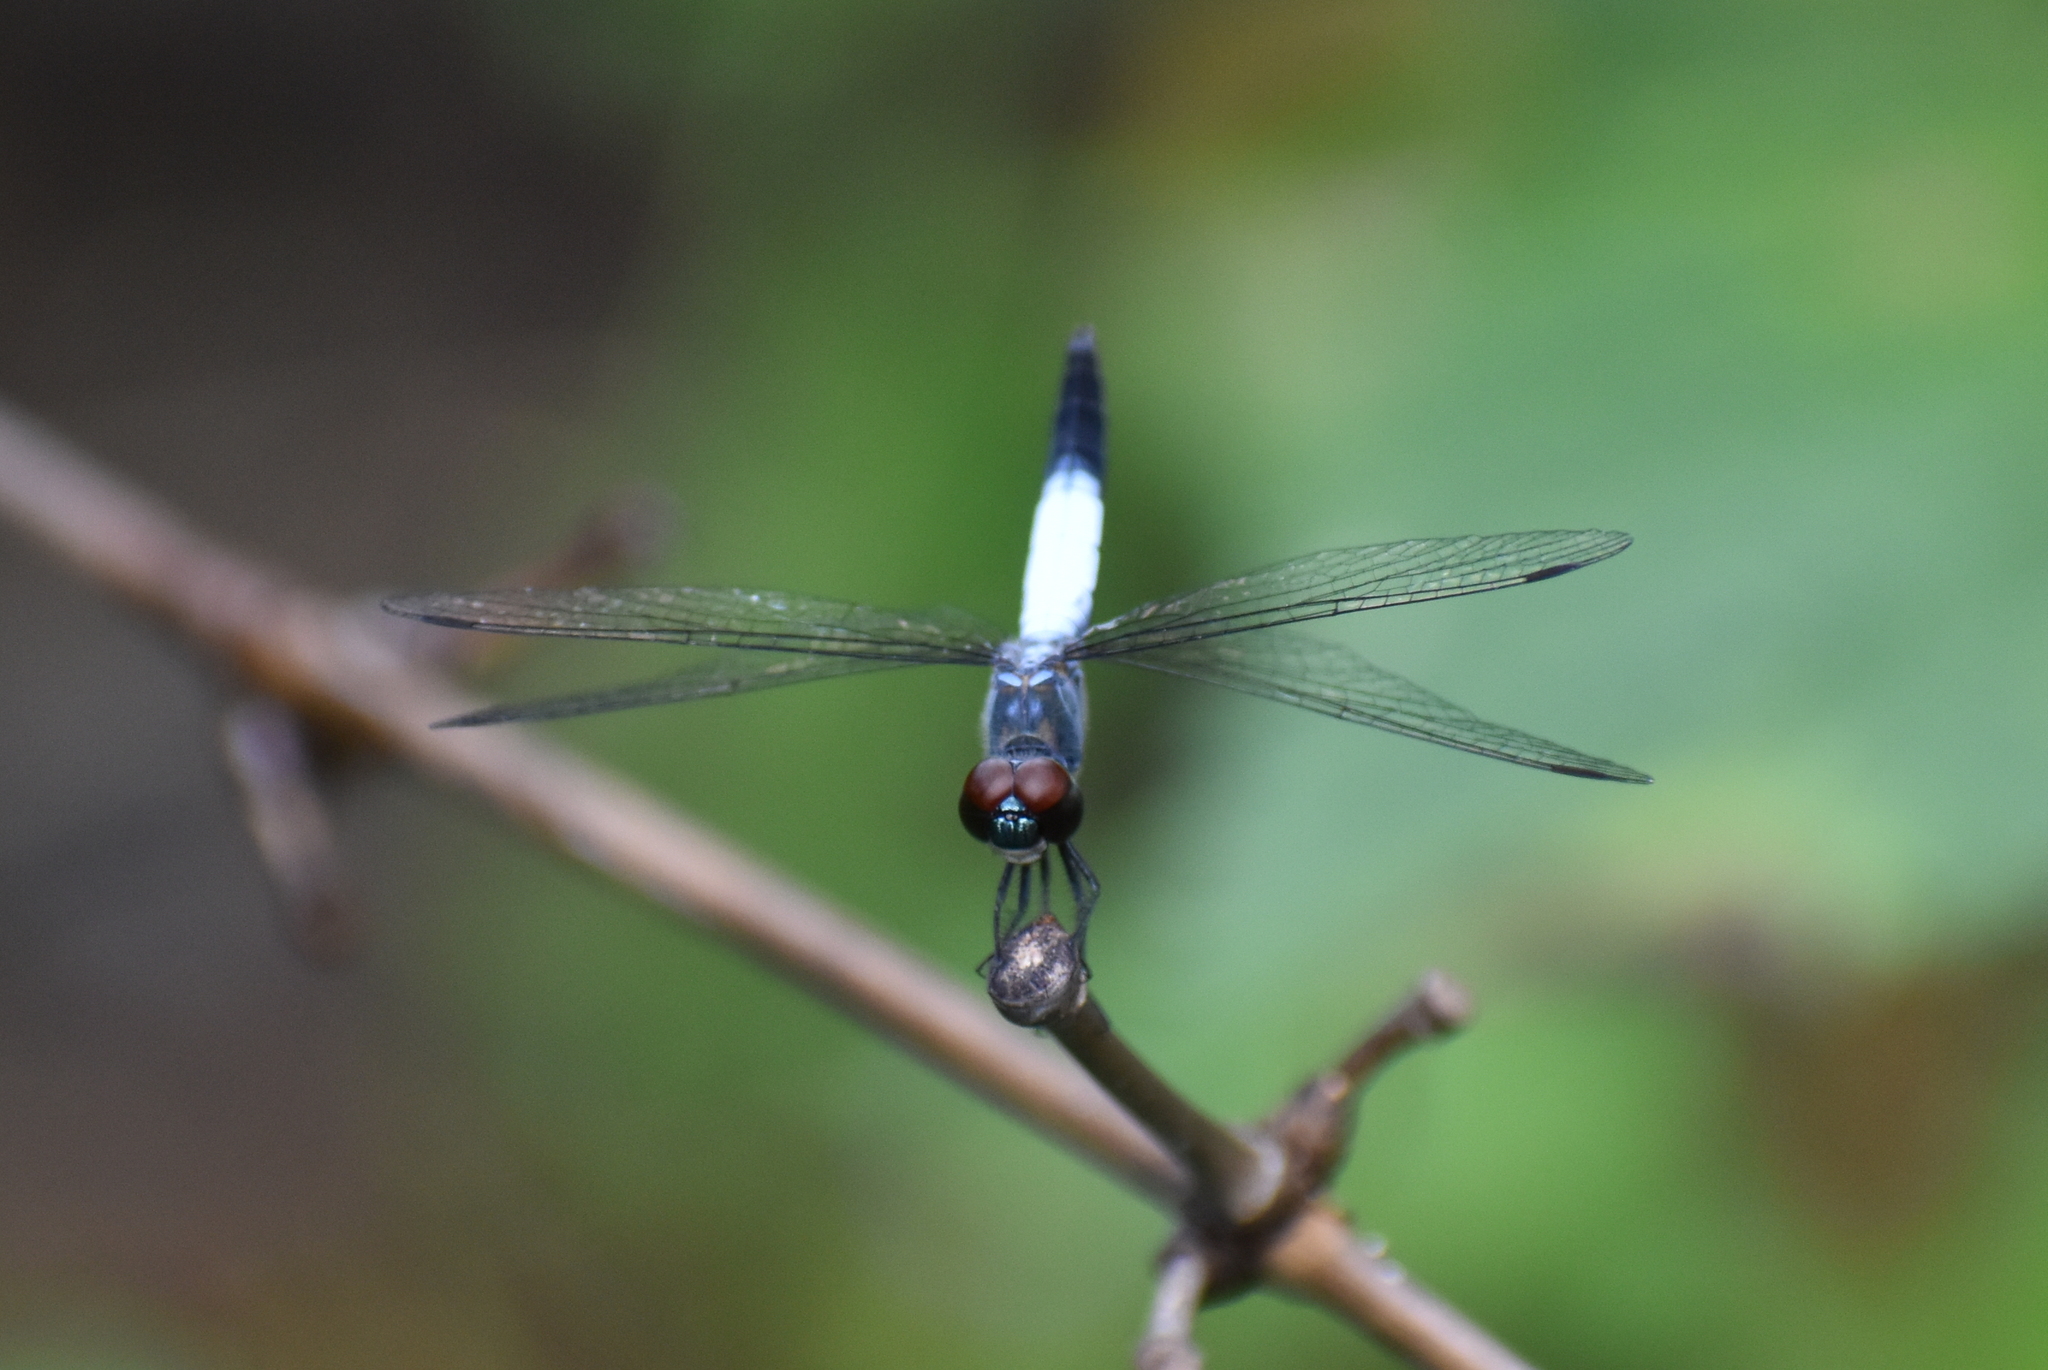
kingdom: Animalia
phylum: Arthropoda
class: Insecta
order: Odonata
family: Libellulidae
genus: Brachydiplax
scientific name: Brachydiplax farinosa
